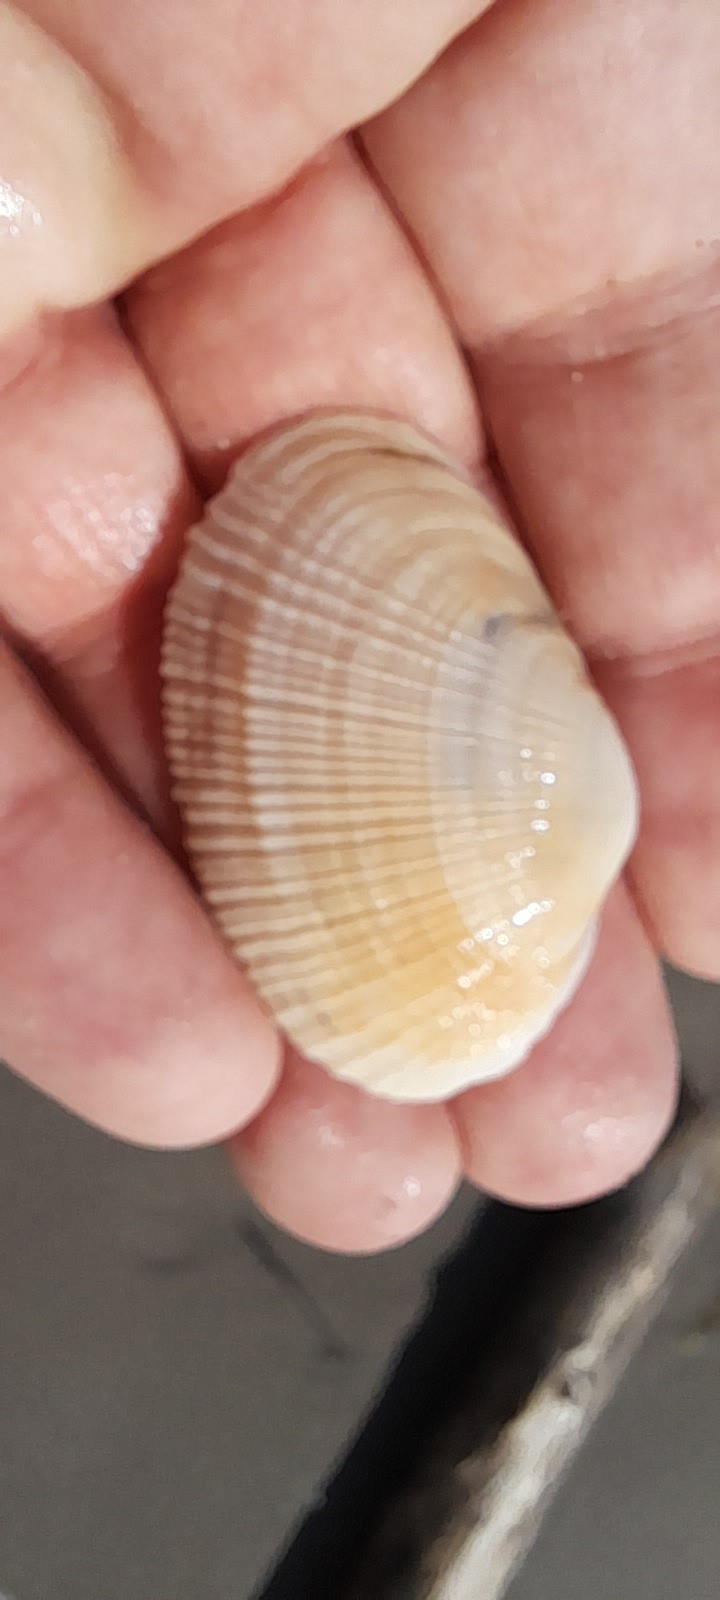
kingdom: Animalia
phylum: Mollusca
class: Bivalvia
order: Venerida
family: Mactridae
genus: Eastonia
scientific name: Eastonia rugosa
